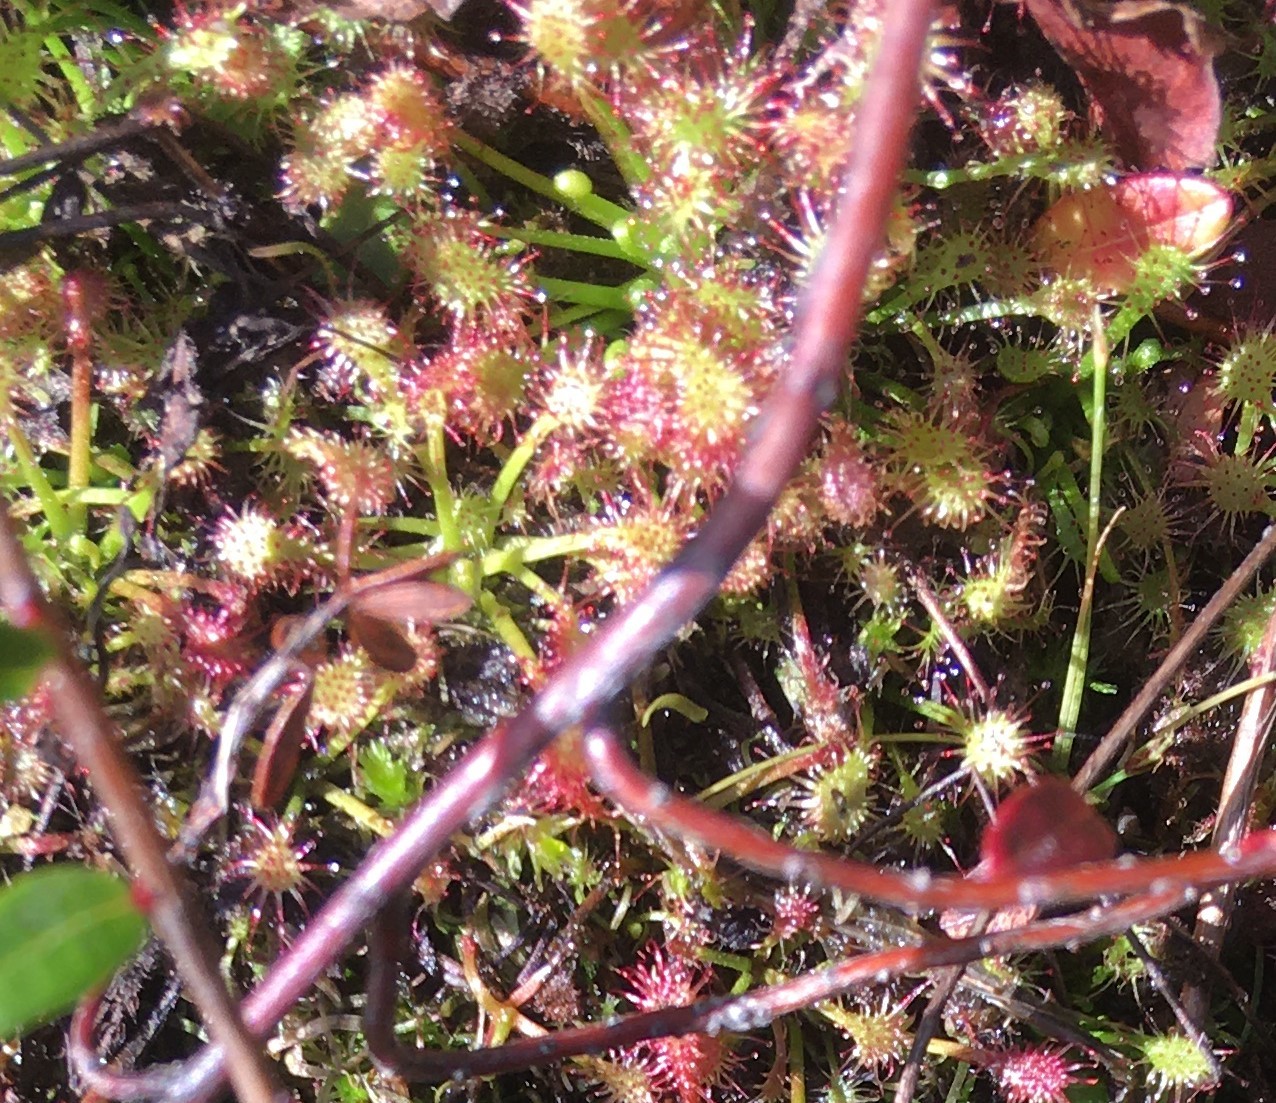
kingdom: Plantae
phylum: Tracheophyta
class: Magnoliopsida
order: Caryophyllales
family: Droseraceae
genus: Drosera
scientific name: Drosera intermedia
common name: Oblong-leaved sundew
